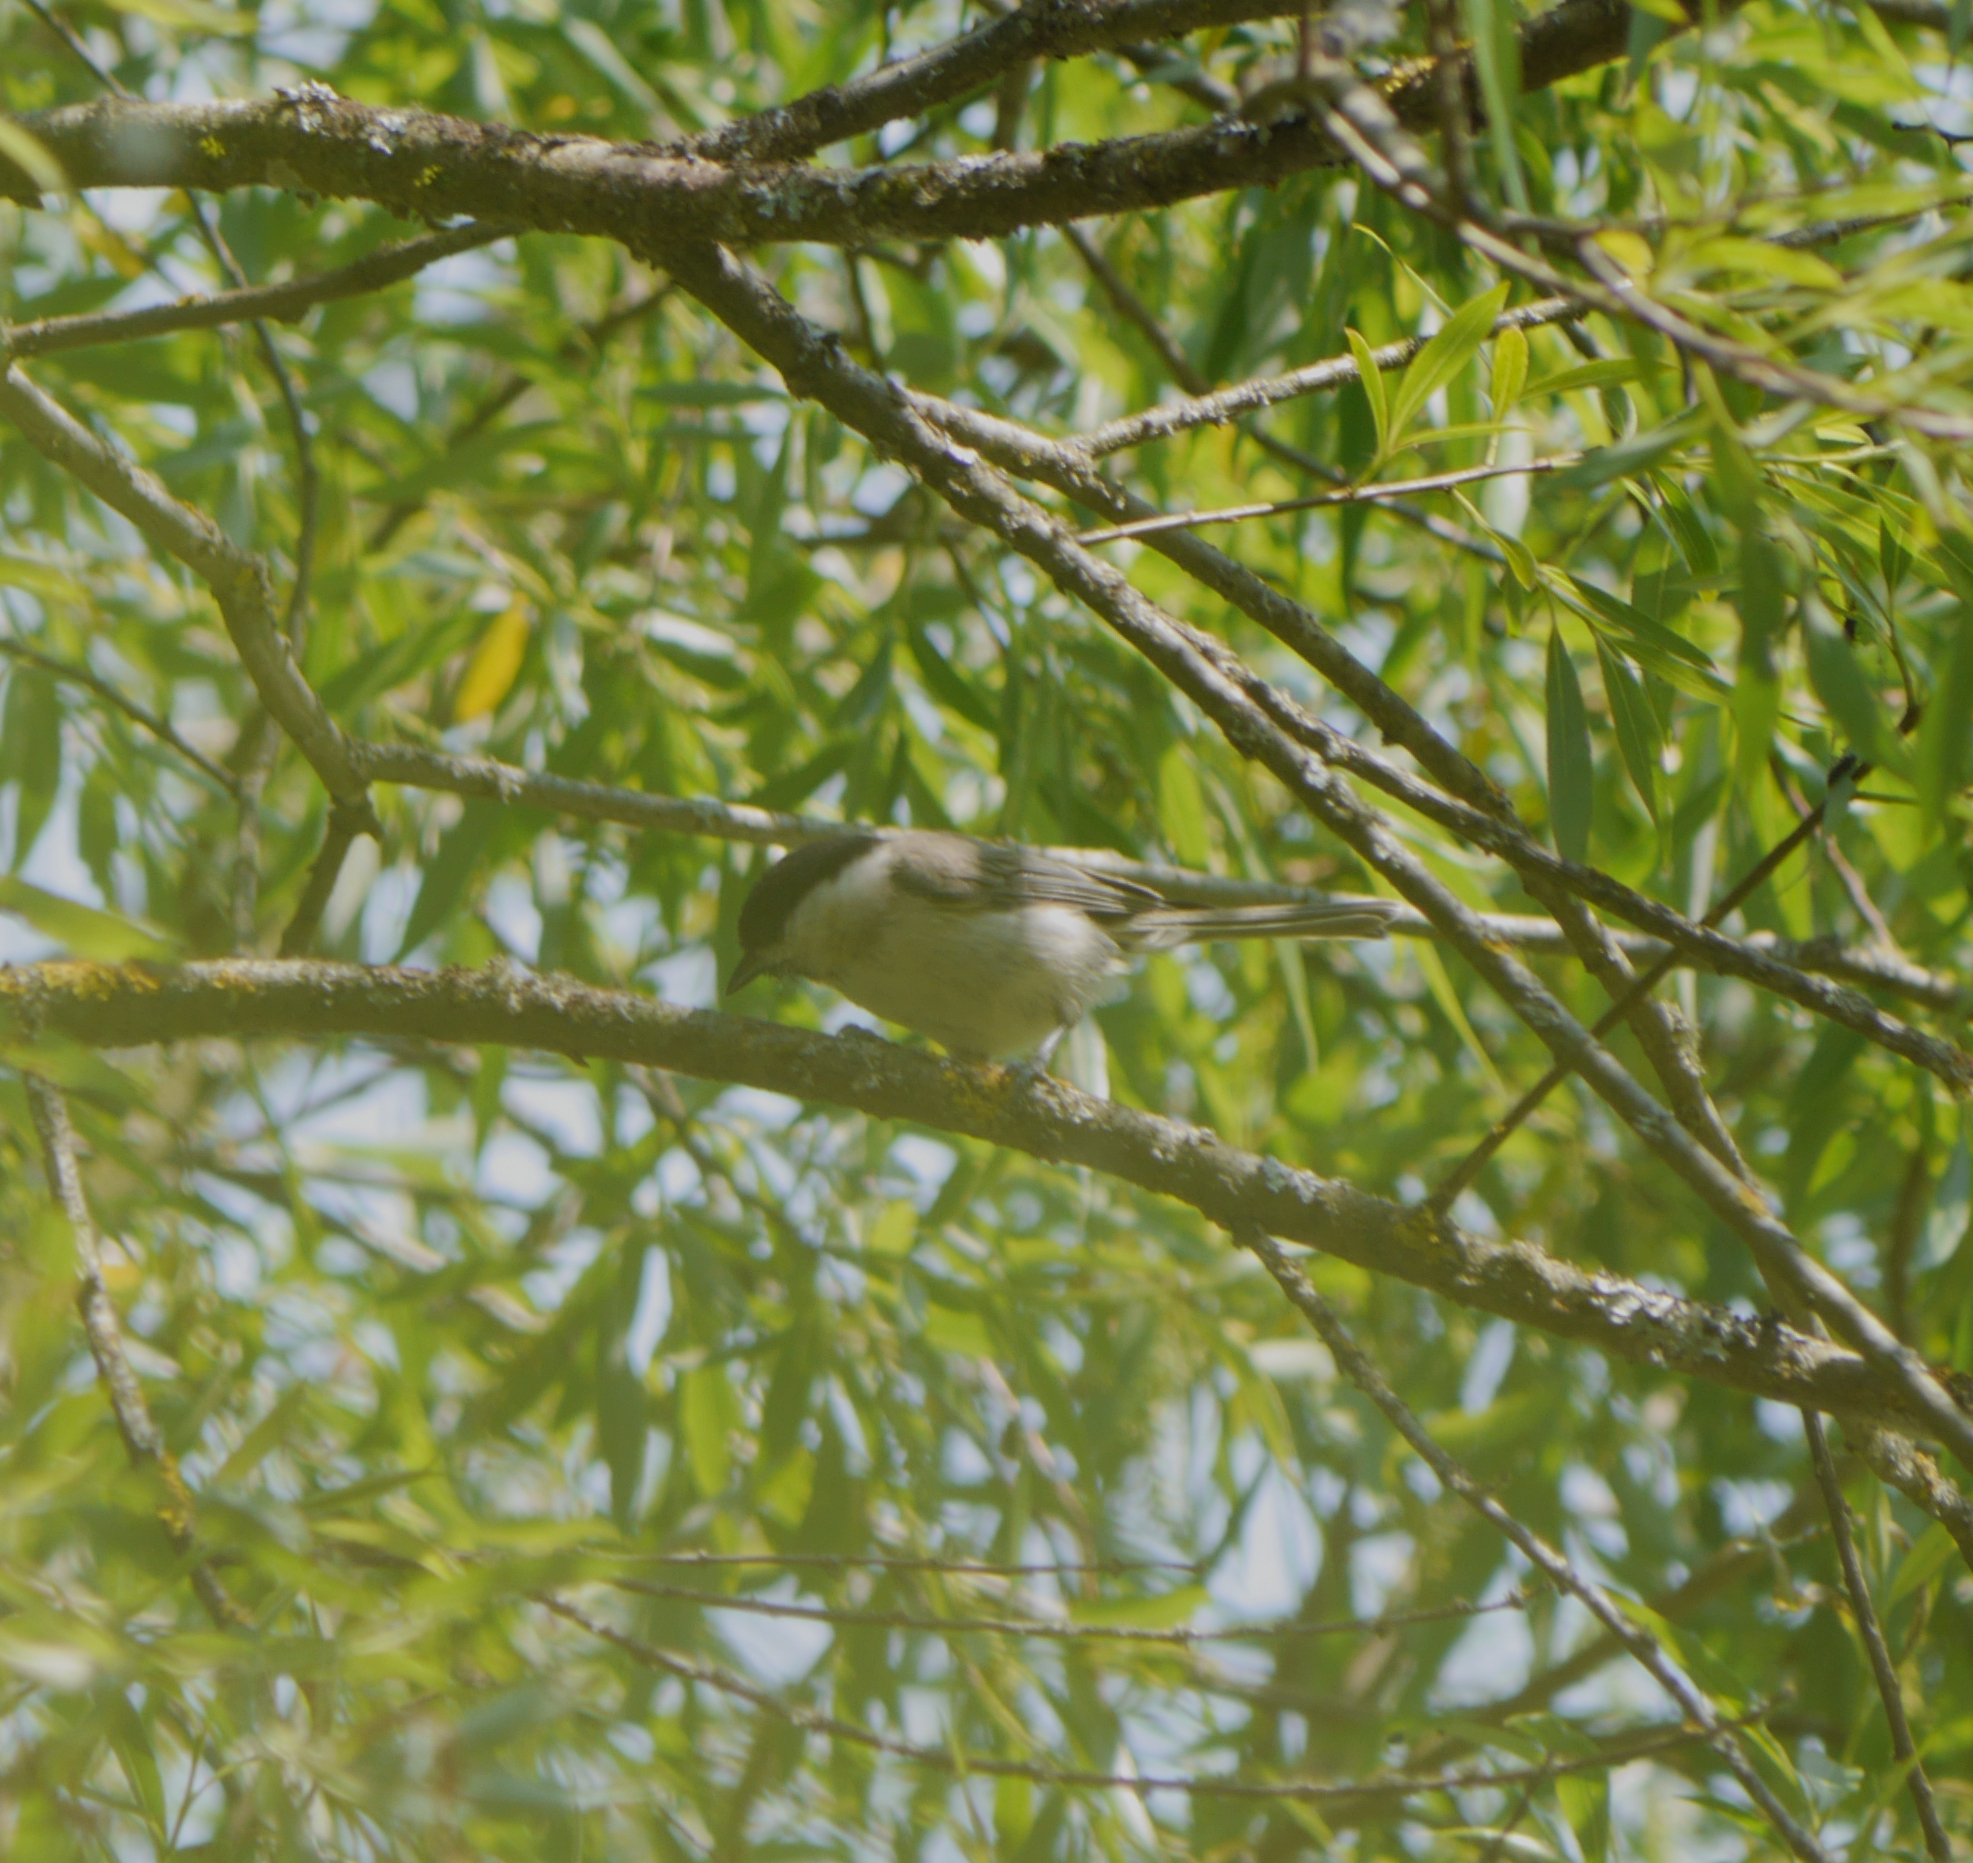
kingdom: Animalia
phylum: Chordata
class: Aves
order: Passeriformes
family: Paridae
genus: Poecile
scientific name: Poecile palustris
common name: Marsh tit
